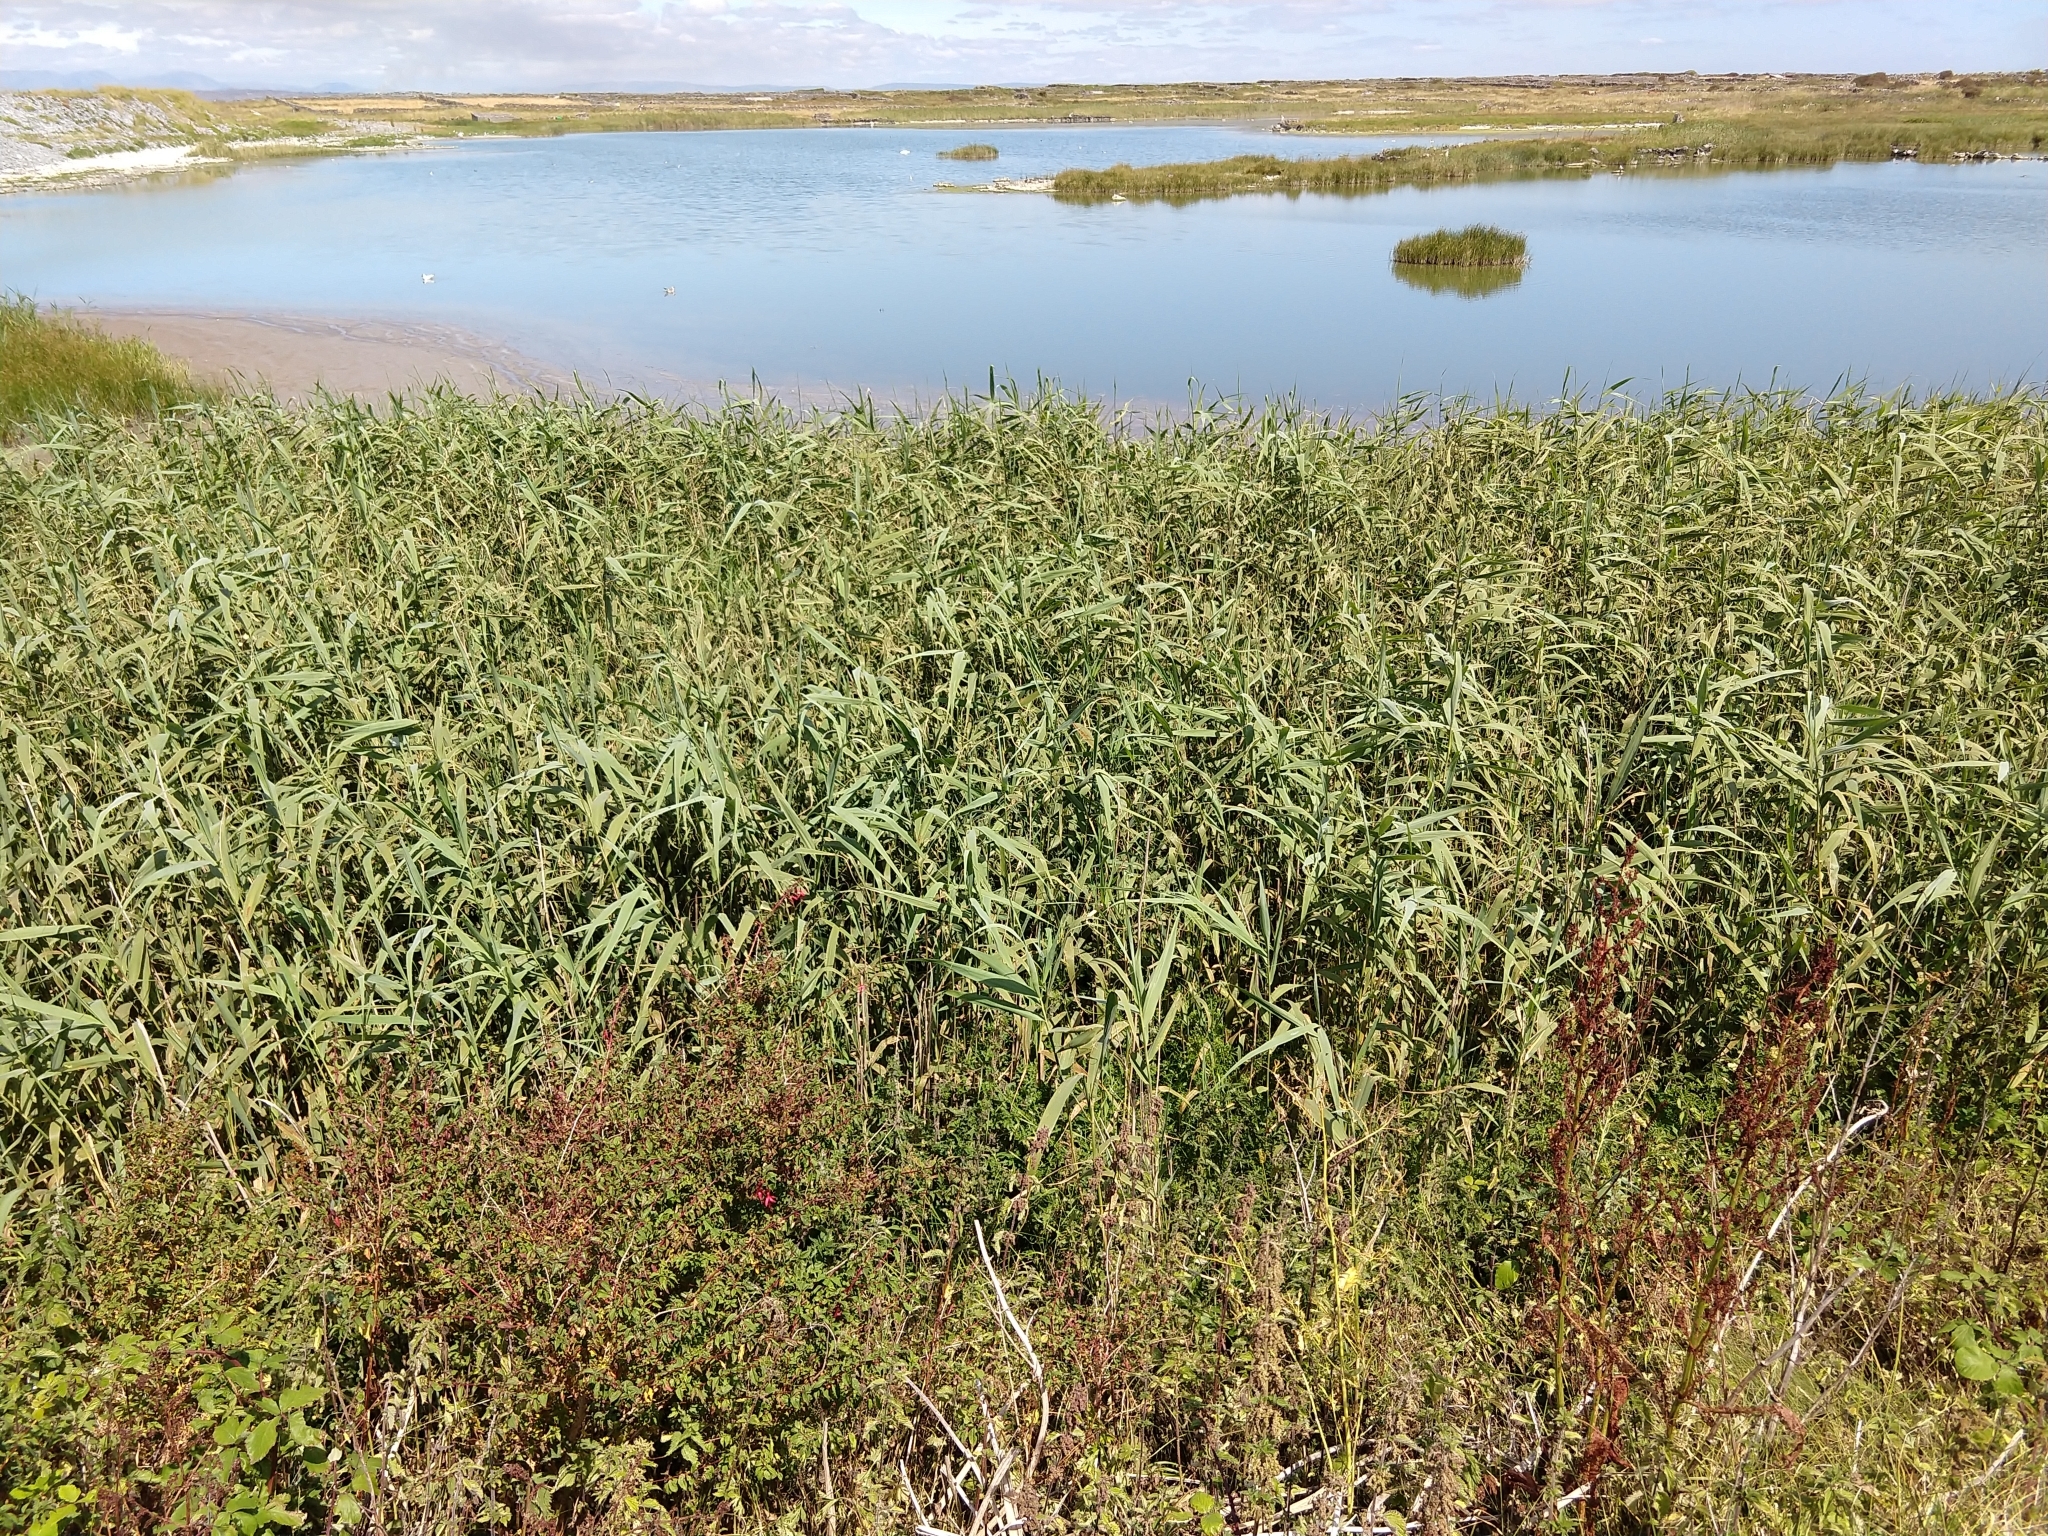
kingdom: Plantae
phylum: Tracheophyta
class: Liliopsida
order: Poales
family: Poaceae
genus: Phragmites
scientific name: Phragmites australis
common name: Common reed
